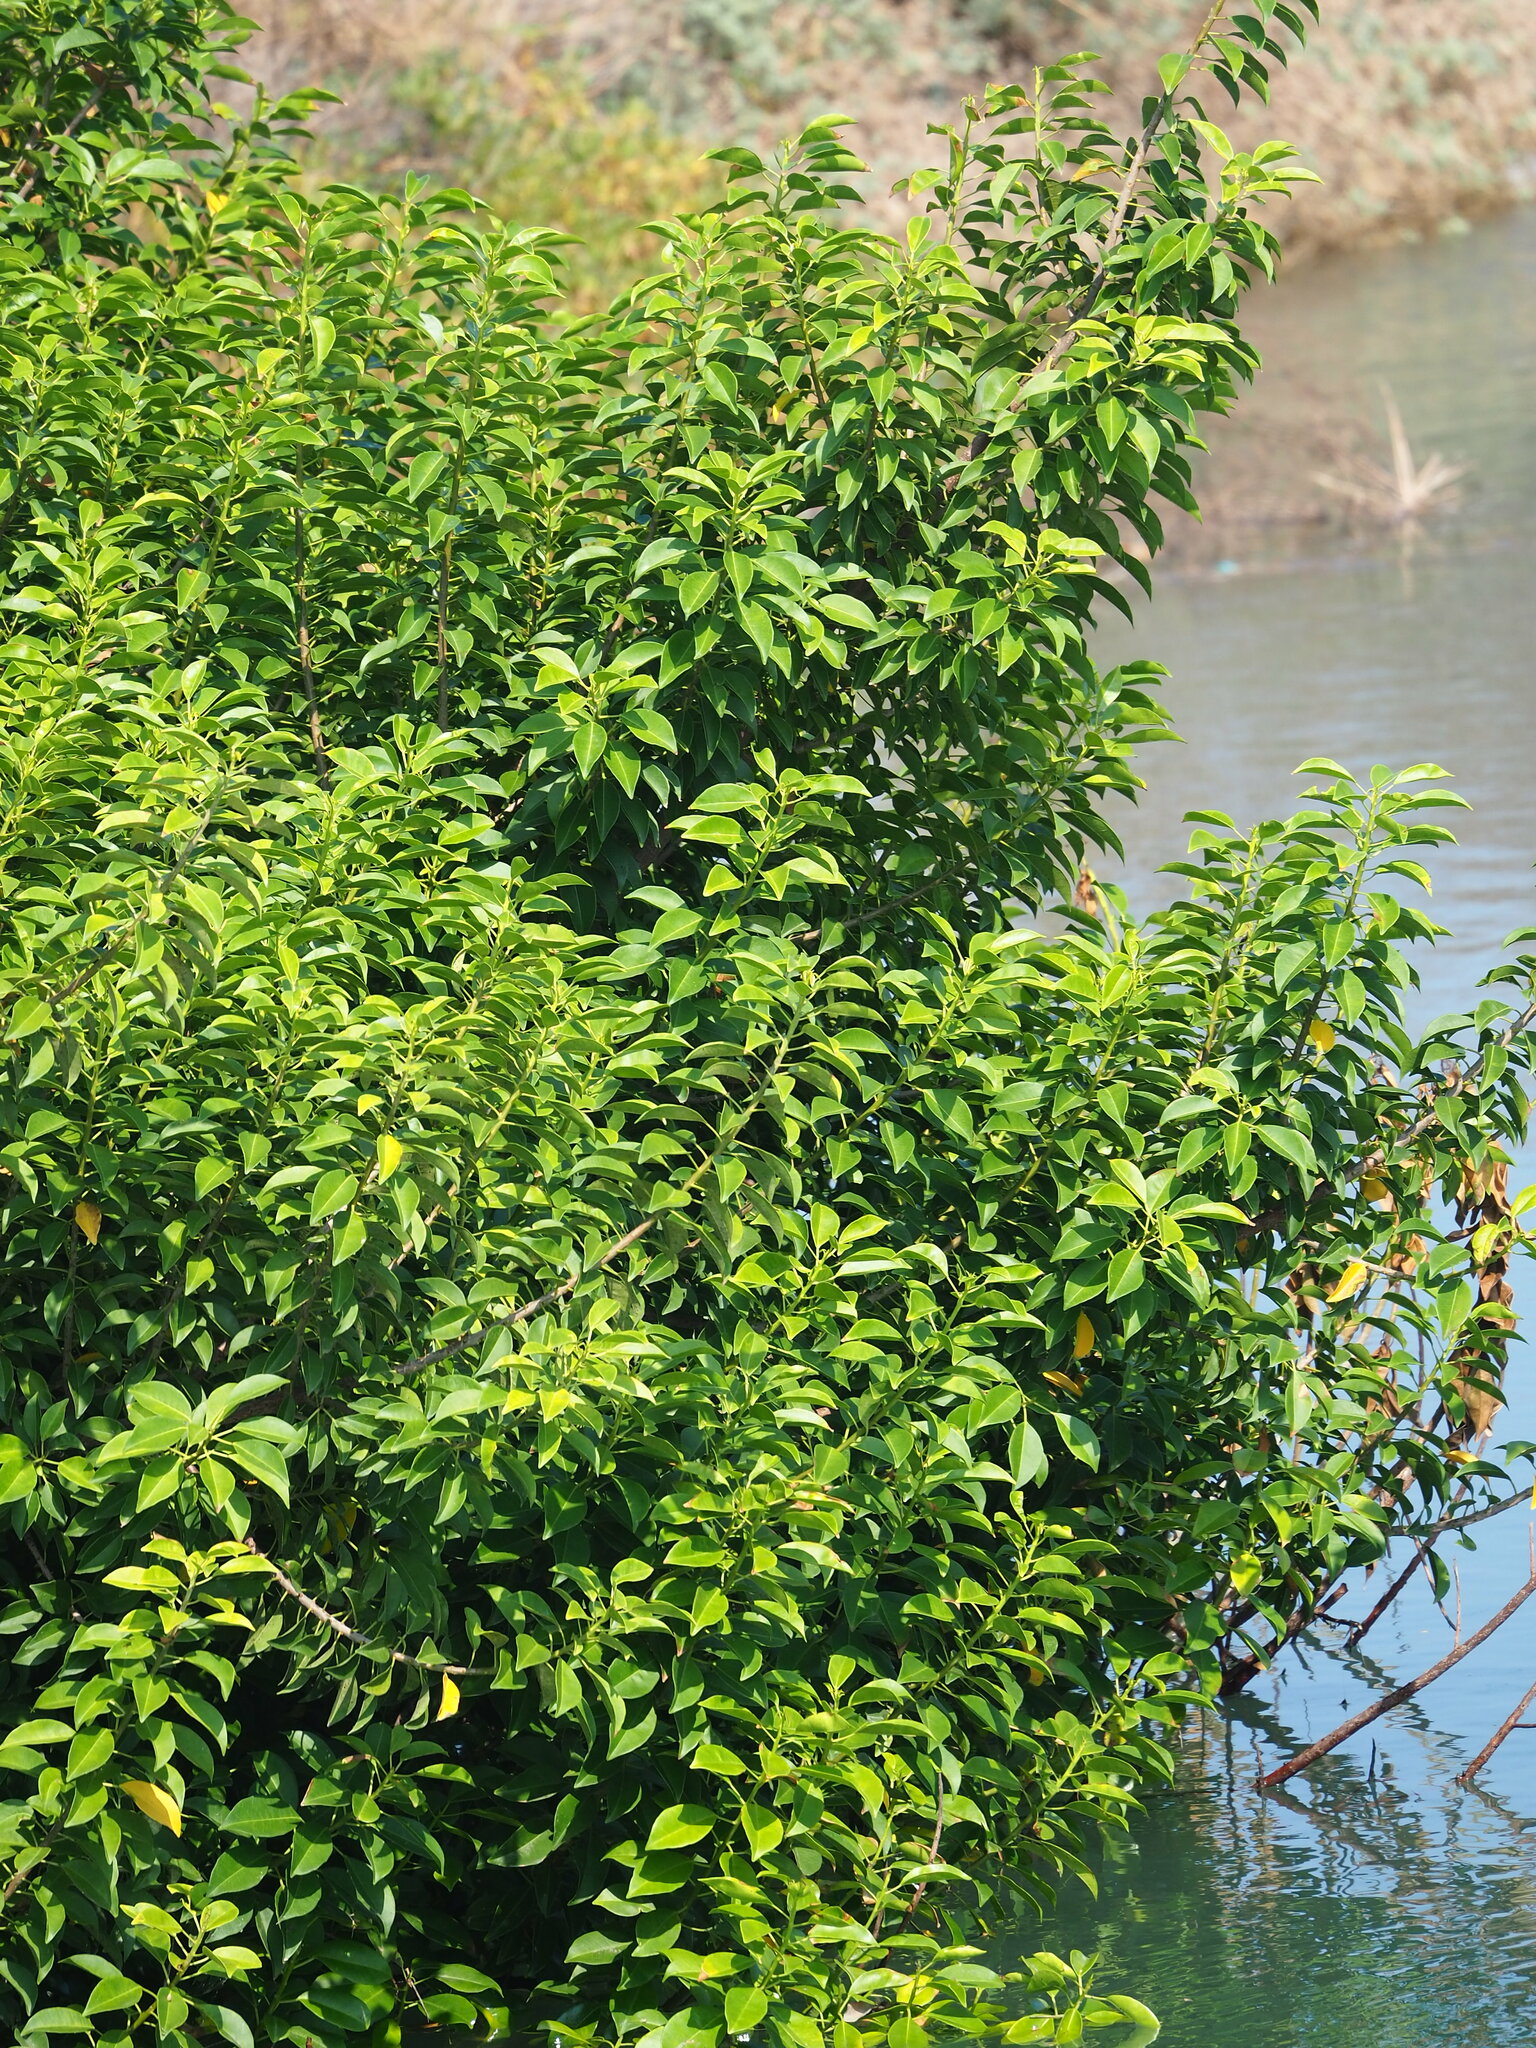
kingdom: Plantae
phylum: Tracheophyta
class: Magnoliopsida
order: Malpighiales
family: Euphorbiaceae
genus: Excoecaria
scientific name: Excoecaria agallocha
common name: River poisontree
